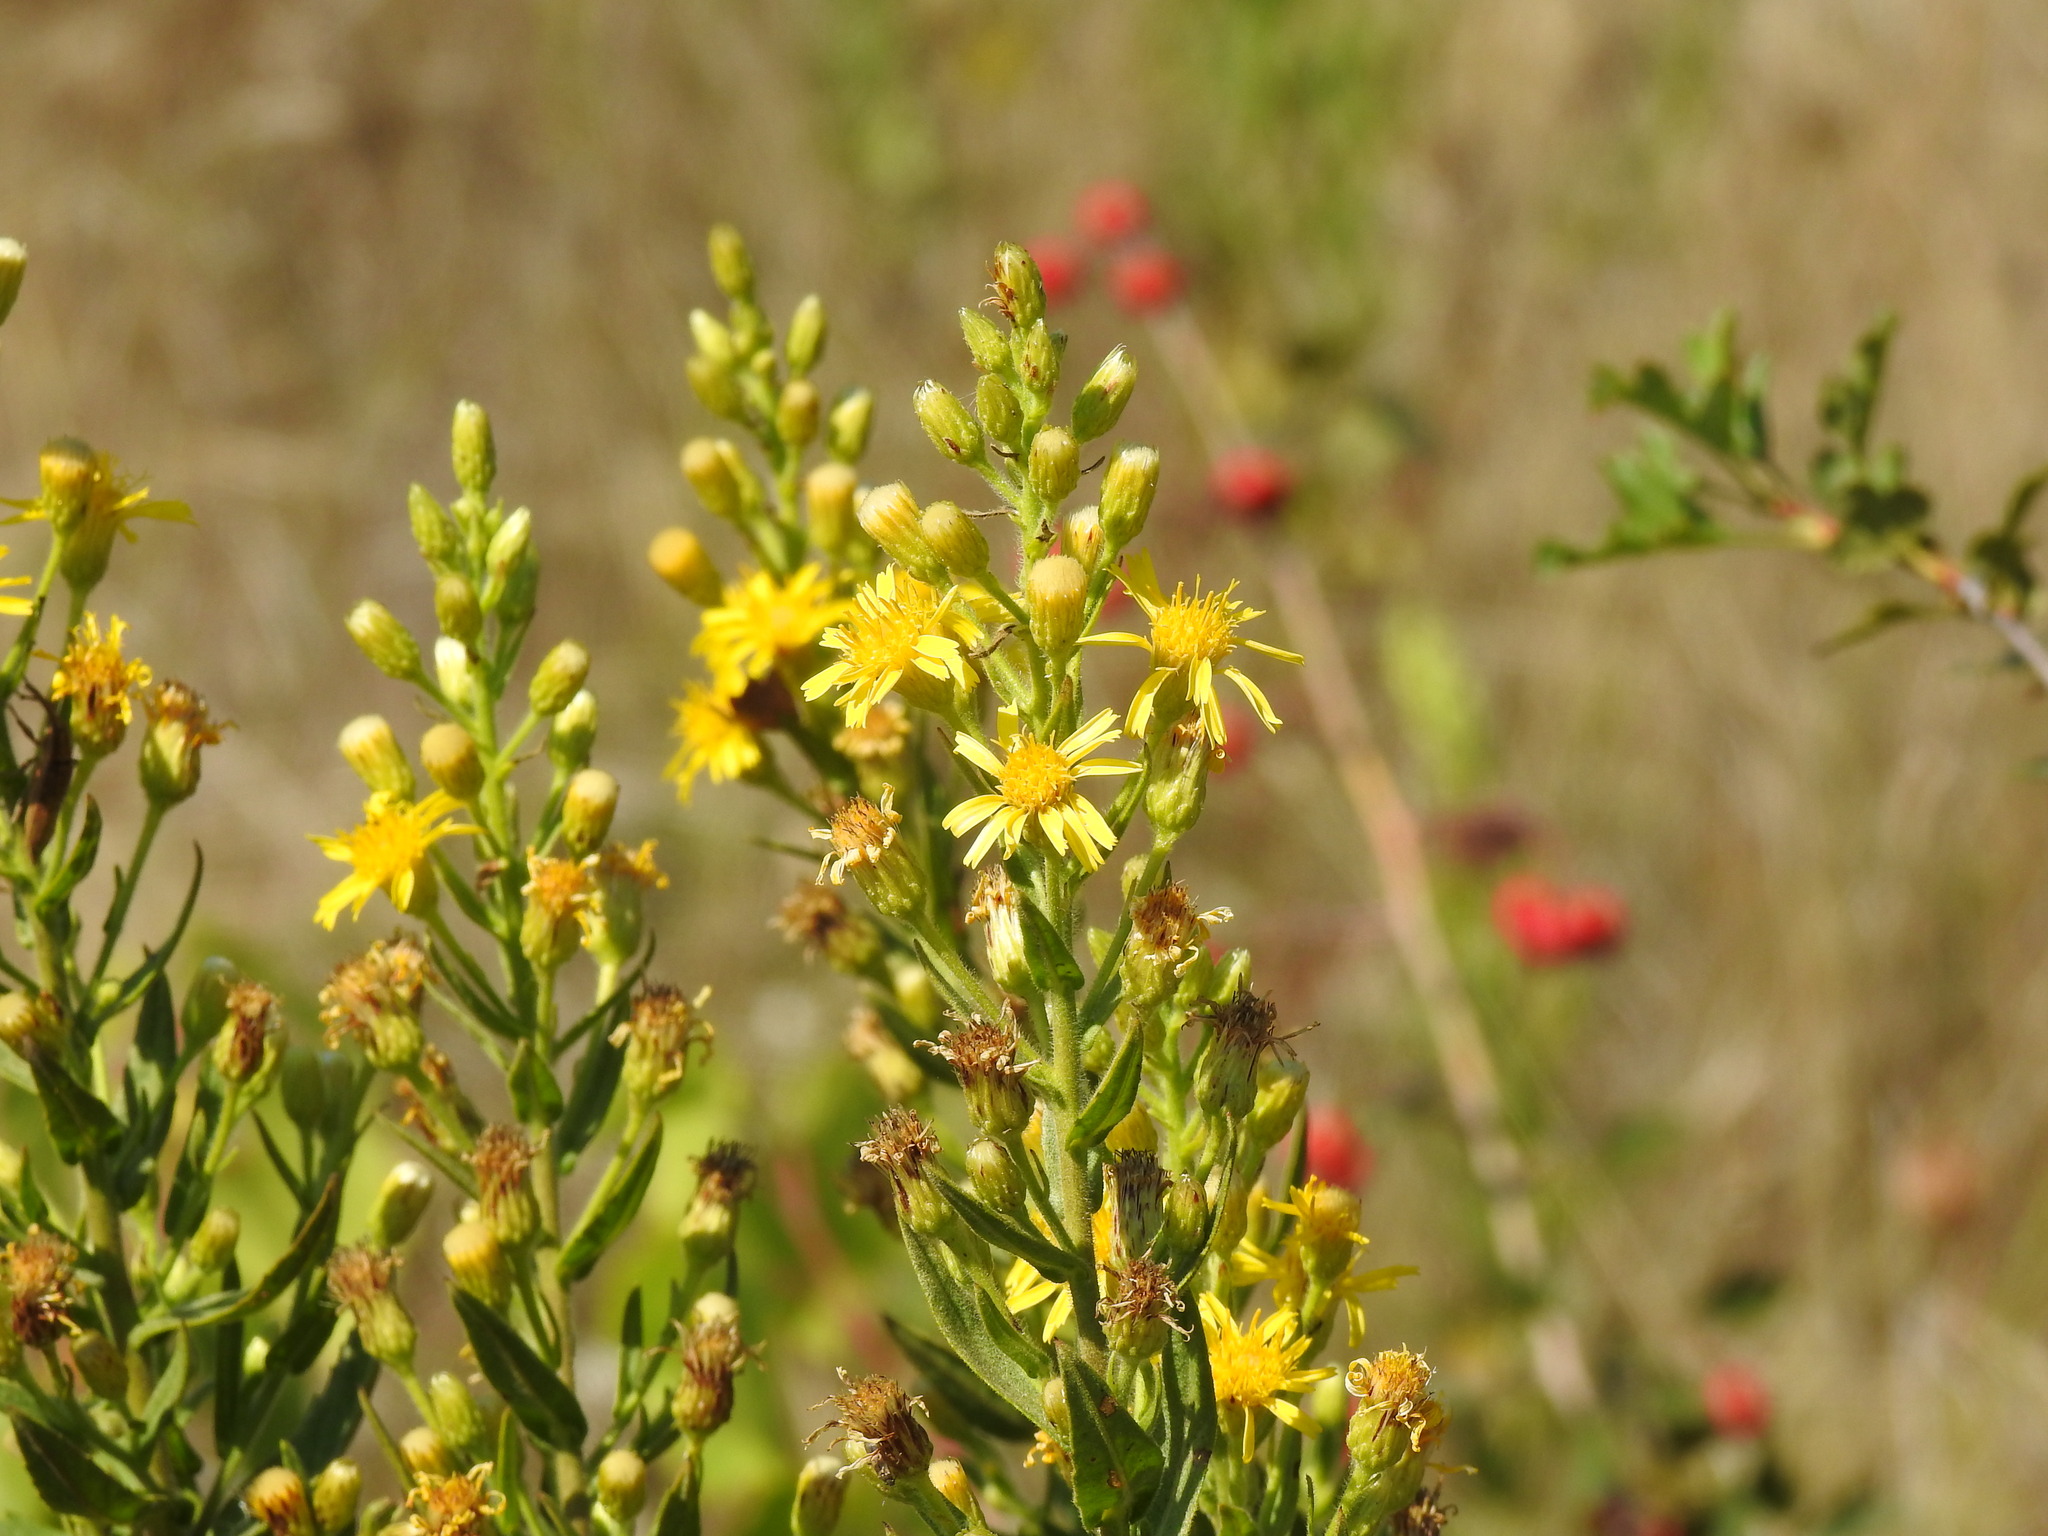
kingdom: Plantae
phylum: Tracheophyta
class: Magnoliopsida
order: Asterales
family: Asteraceae
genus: Dittrichia
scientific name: Dittrichia viscosa
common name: Woody fleabane
